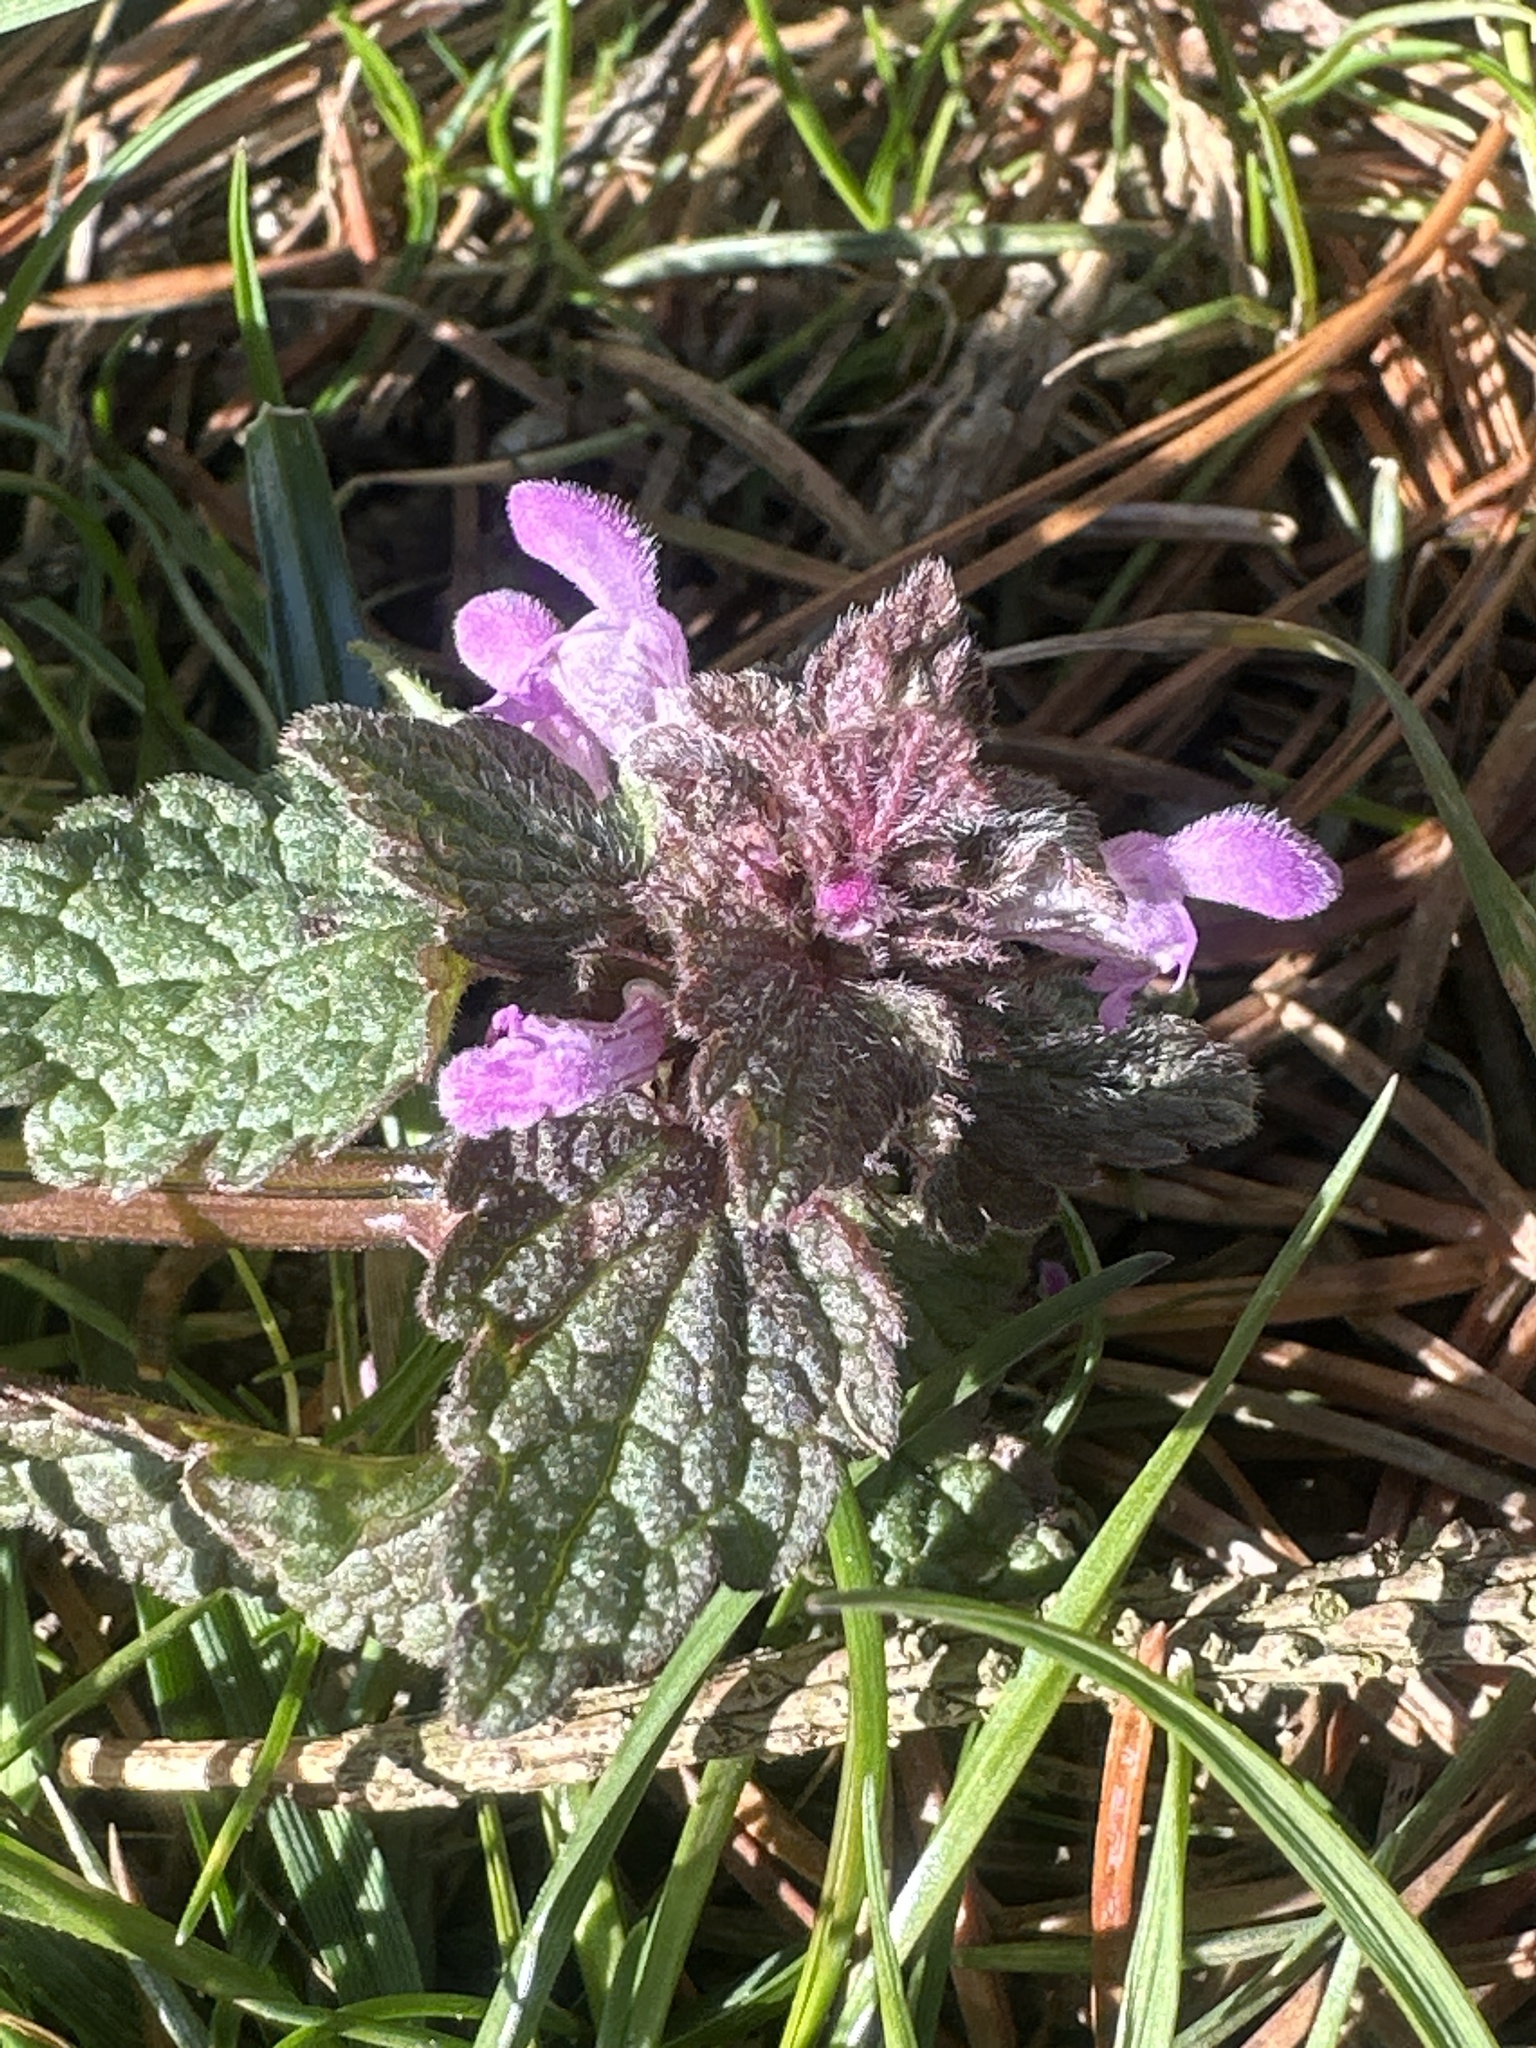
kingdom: Plantae
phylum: Tracheophyta
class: Magnoliopsida
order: Lamiales
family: Lamiaceae
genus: Lamium
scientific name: Lamium purpureum
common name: Red dead-nettle
